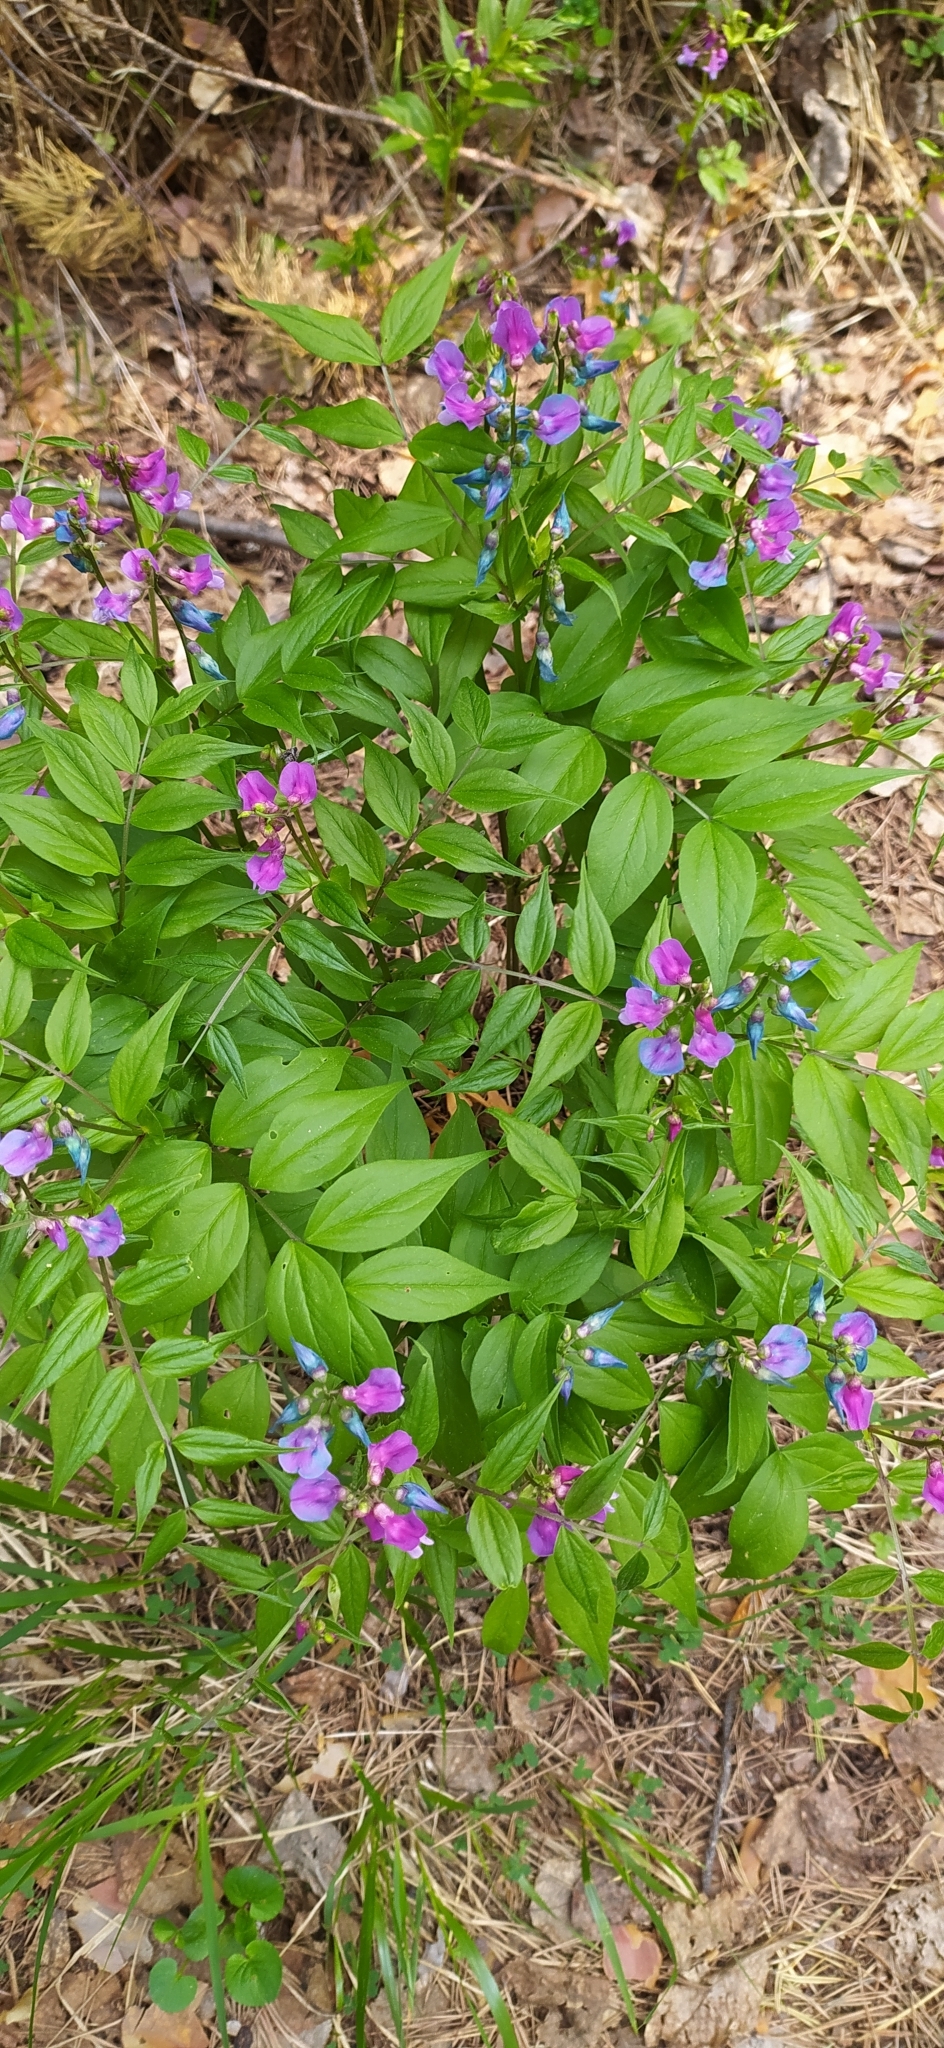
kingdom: Plantae
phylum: Tracheophyta
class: Magnoliopsida
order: Fabales
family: Fabaceae
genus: Lathyrus
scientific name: Lathyrus vernus
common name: Spring pea
